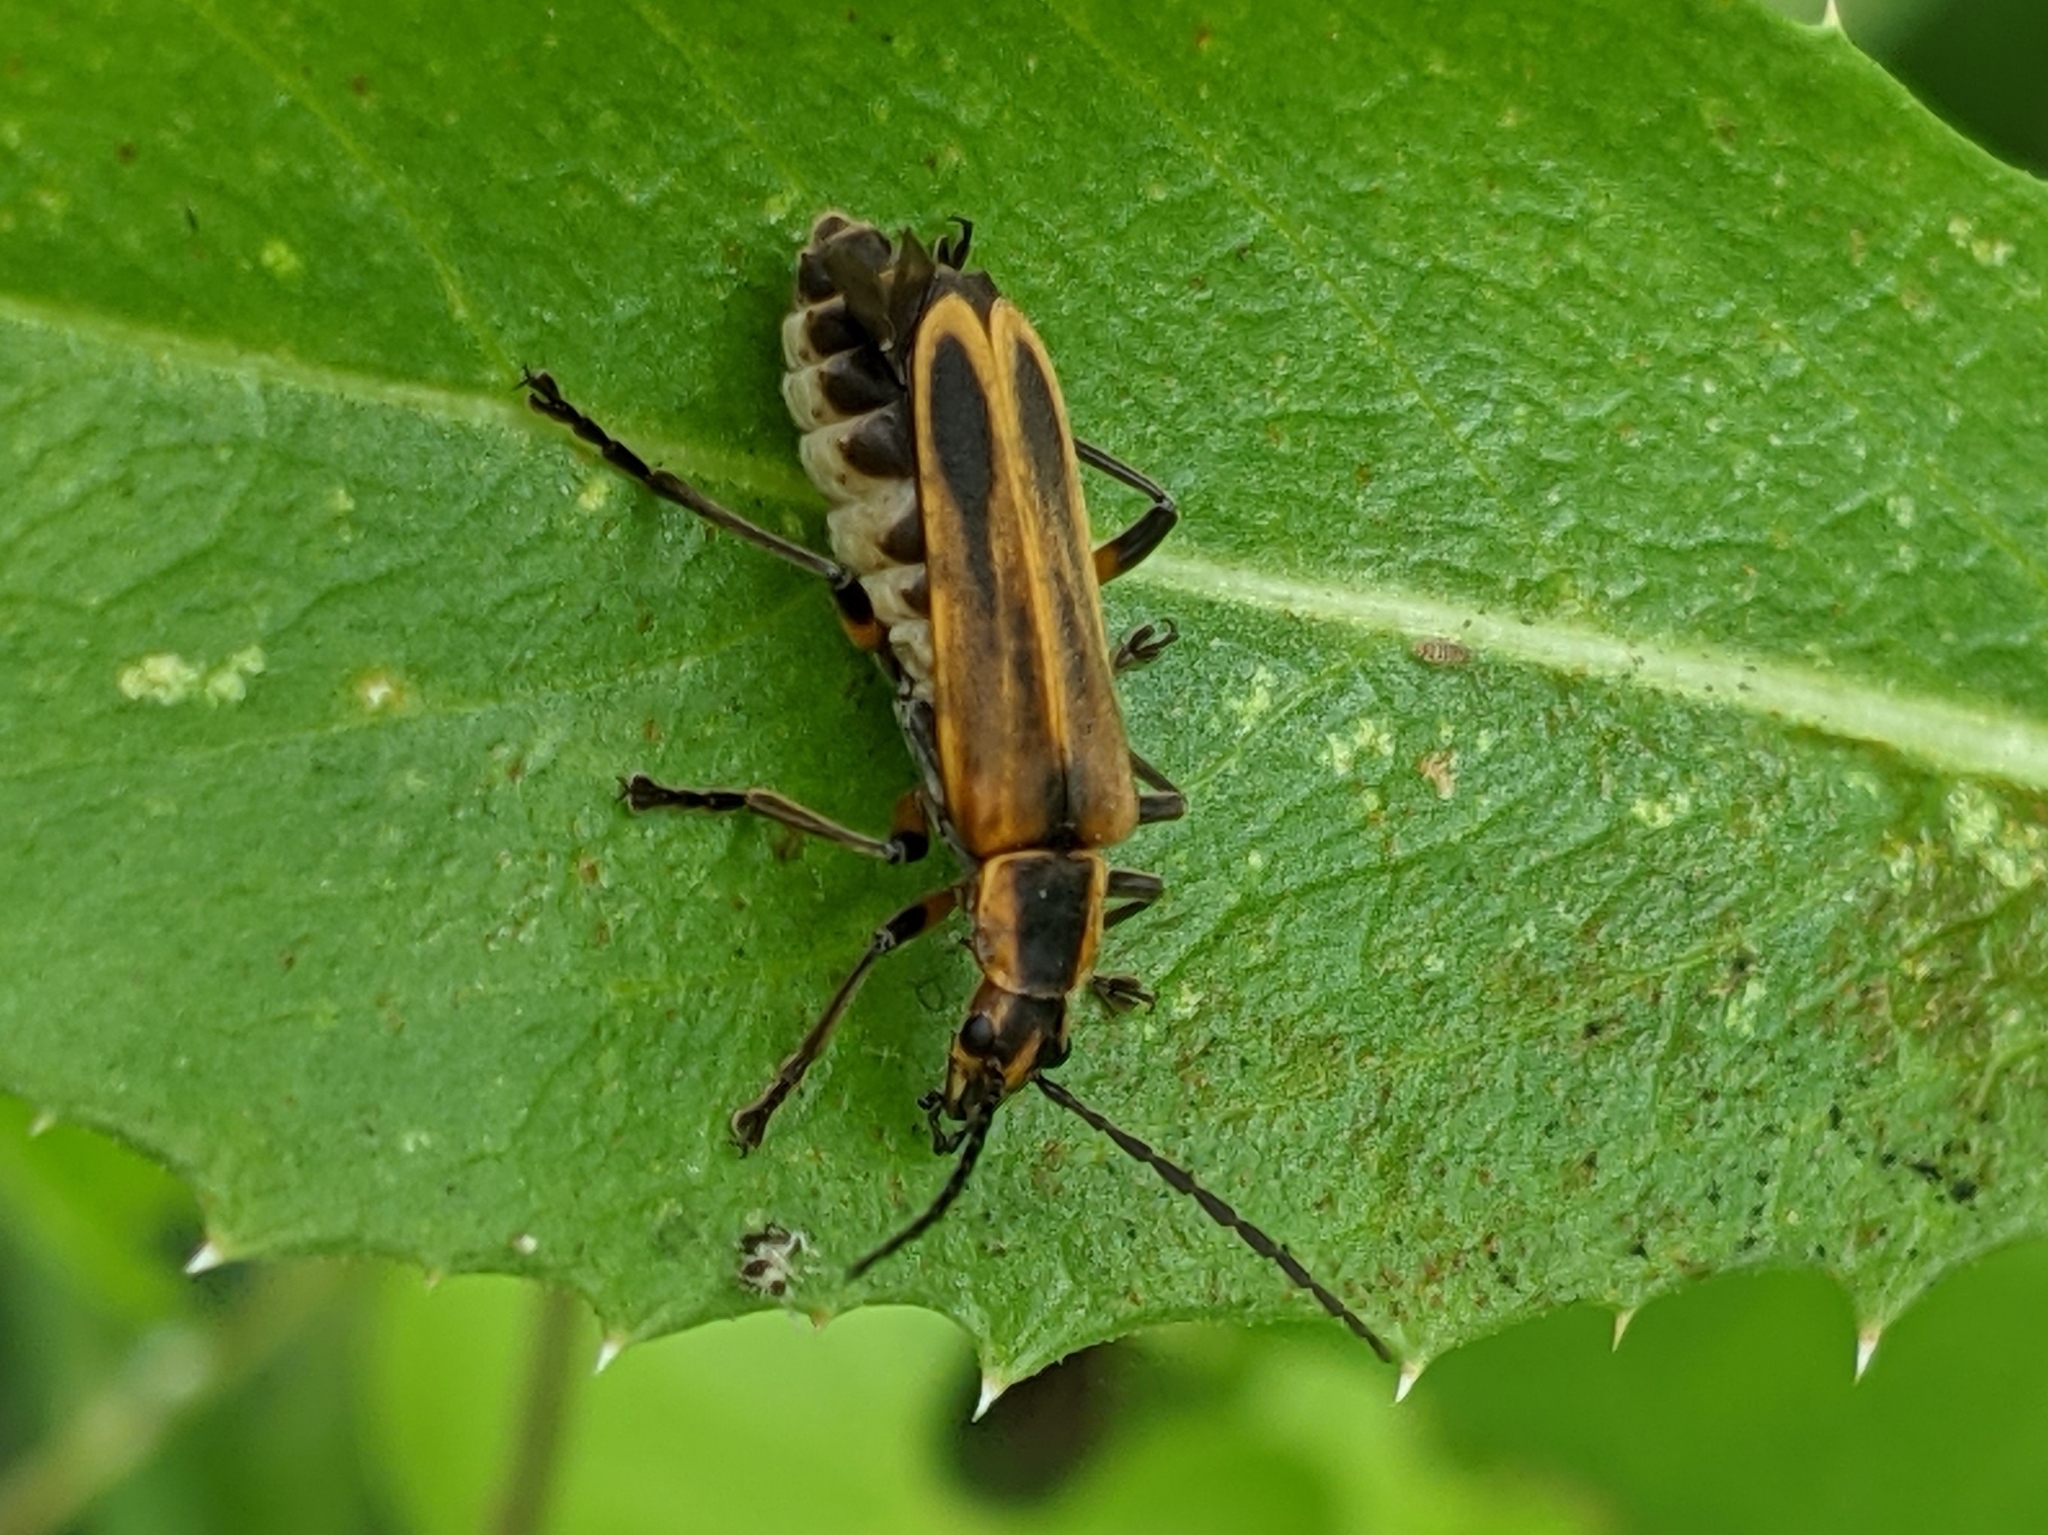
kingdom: Animalia
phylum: Arthropoda
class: Insecta
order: Coleoptera
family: Cantharidae
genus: Chauliognathus
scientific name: Chauliognathus marginatus
